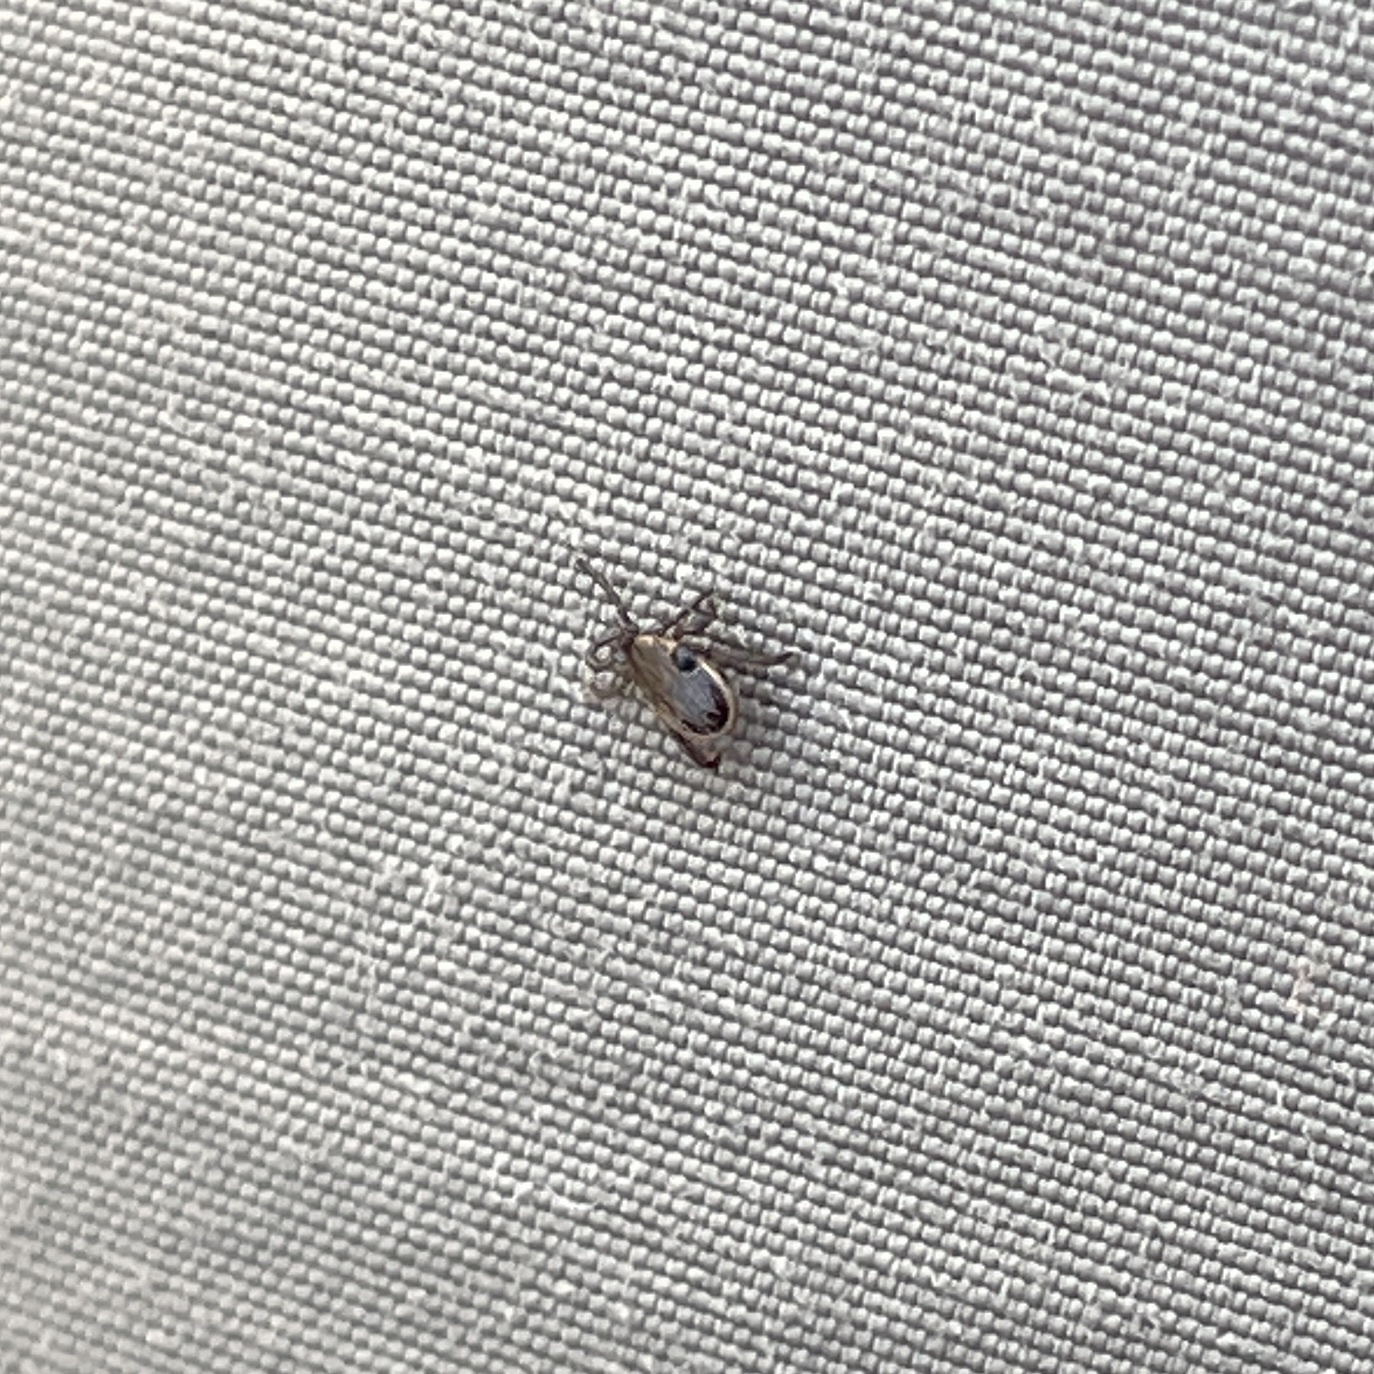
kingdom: Animalia
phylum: Arthropoda
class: Arachnida
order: Ixodida
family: Ixodidae
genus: Ixodes
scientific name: Ixodes scapularis
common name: Black legged tick
